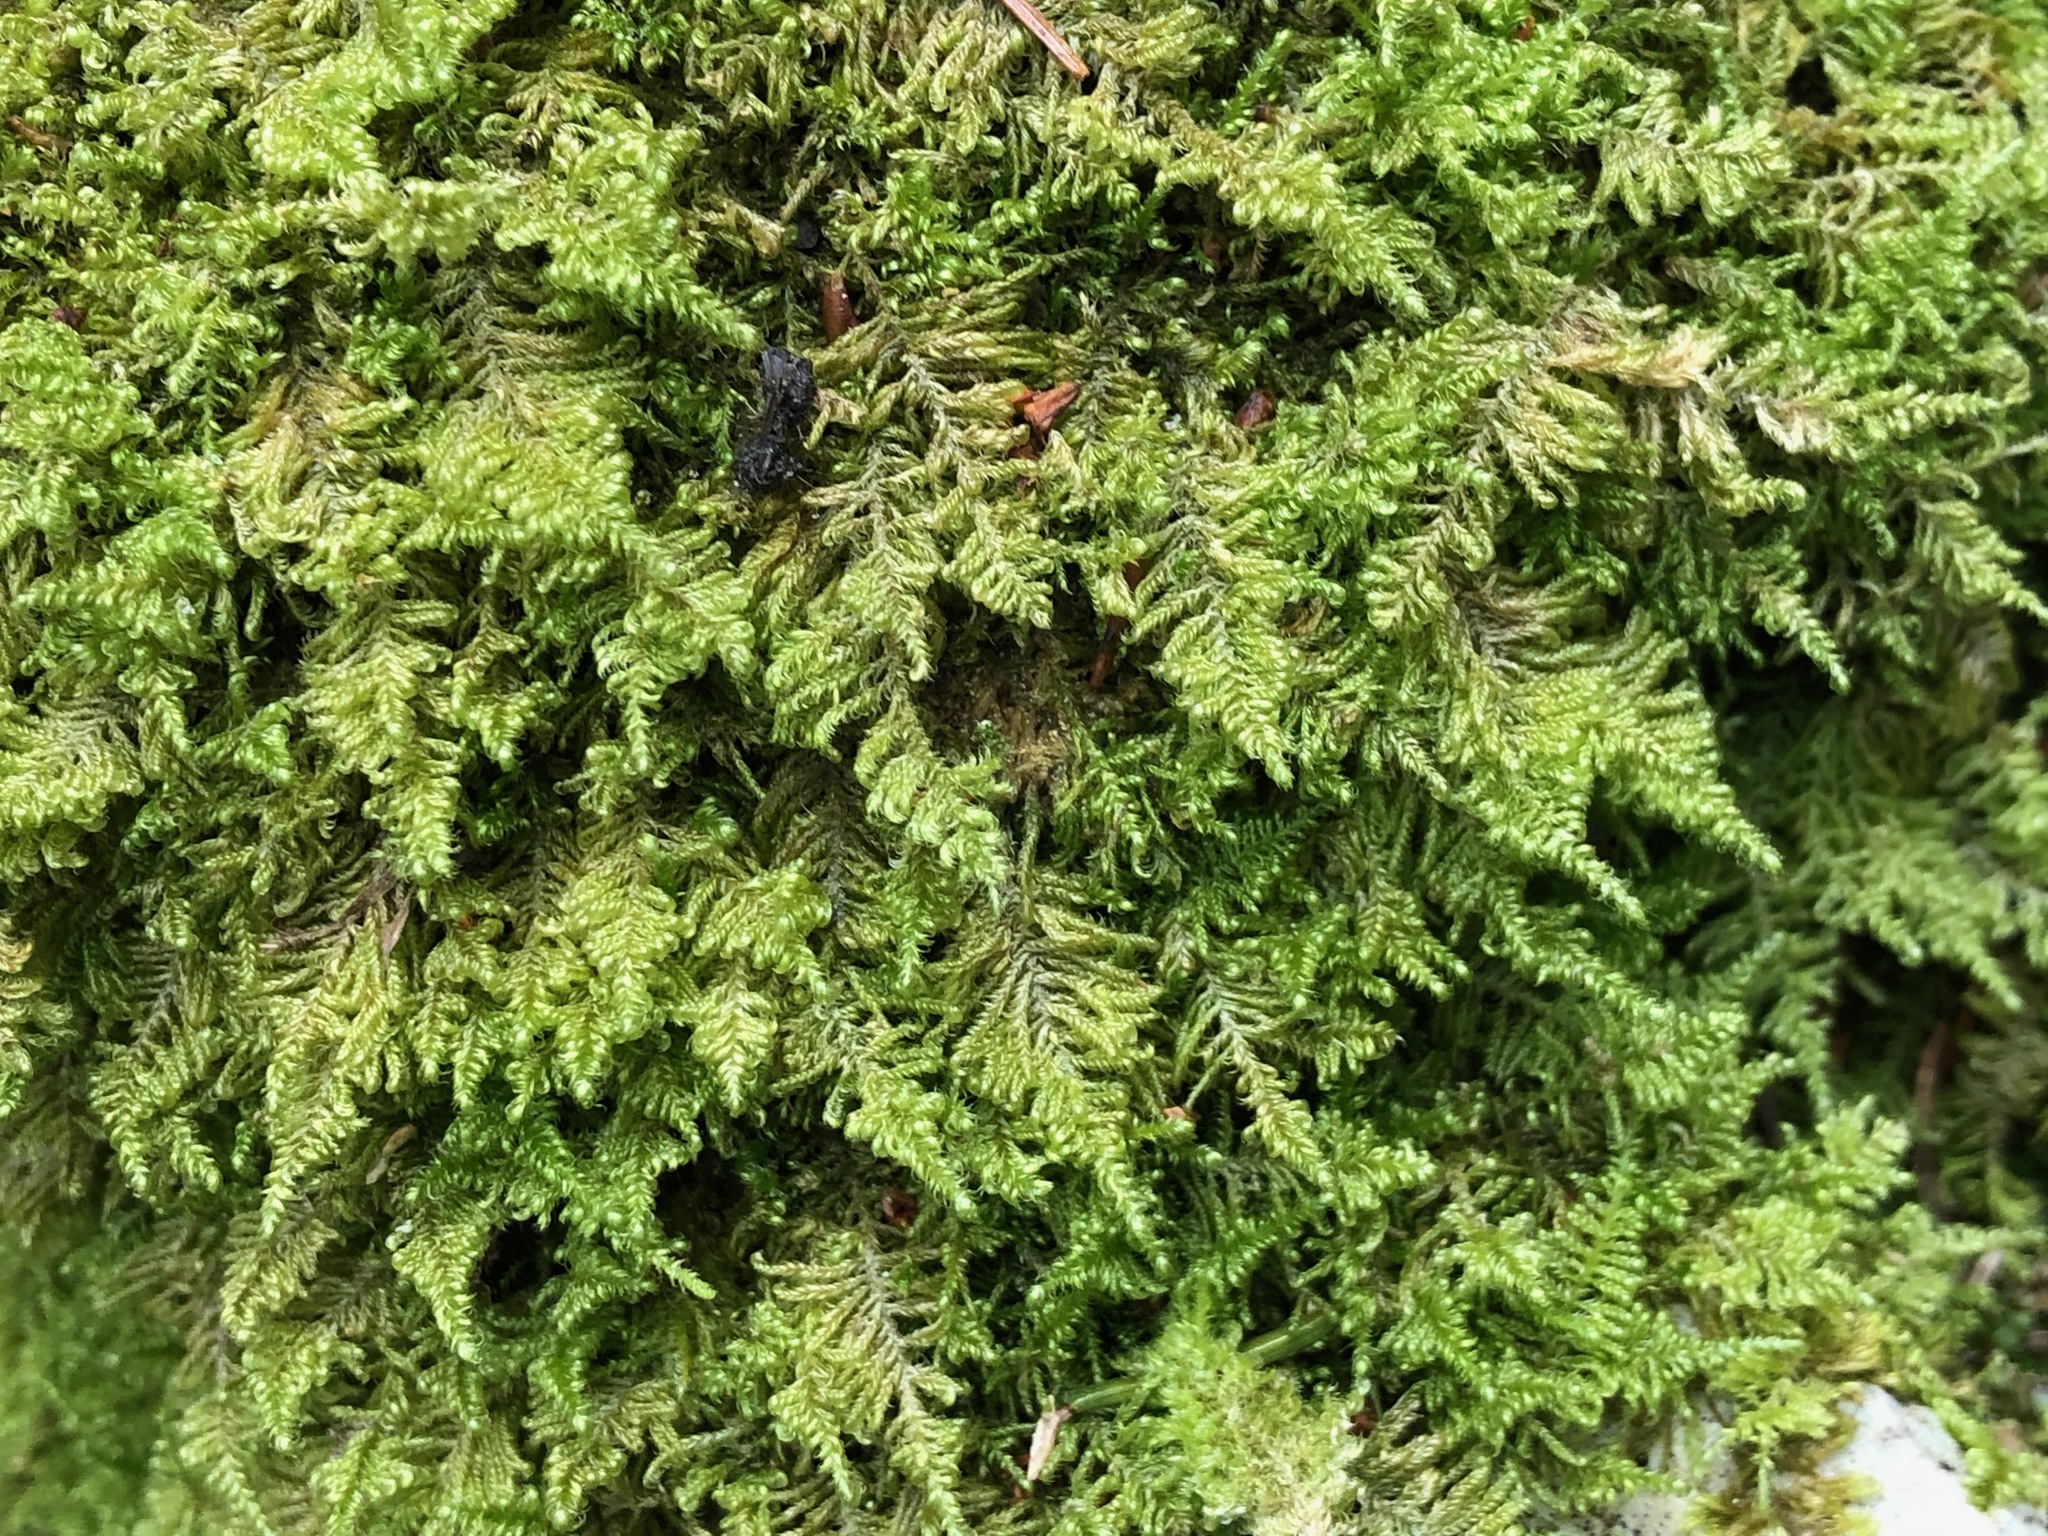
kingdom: Plantae
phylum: Bryophyta
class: Bryopsida
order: Hypnales
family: Myuriaceae
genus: Ctenidium
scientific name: Ctenidium molluscum
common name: Chalk comb-moss
